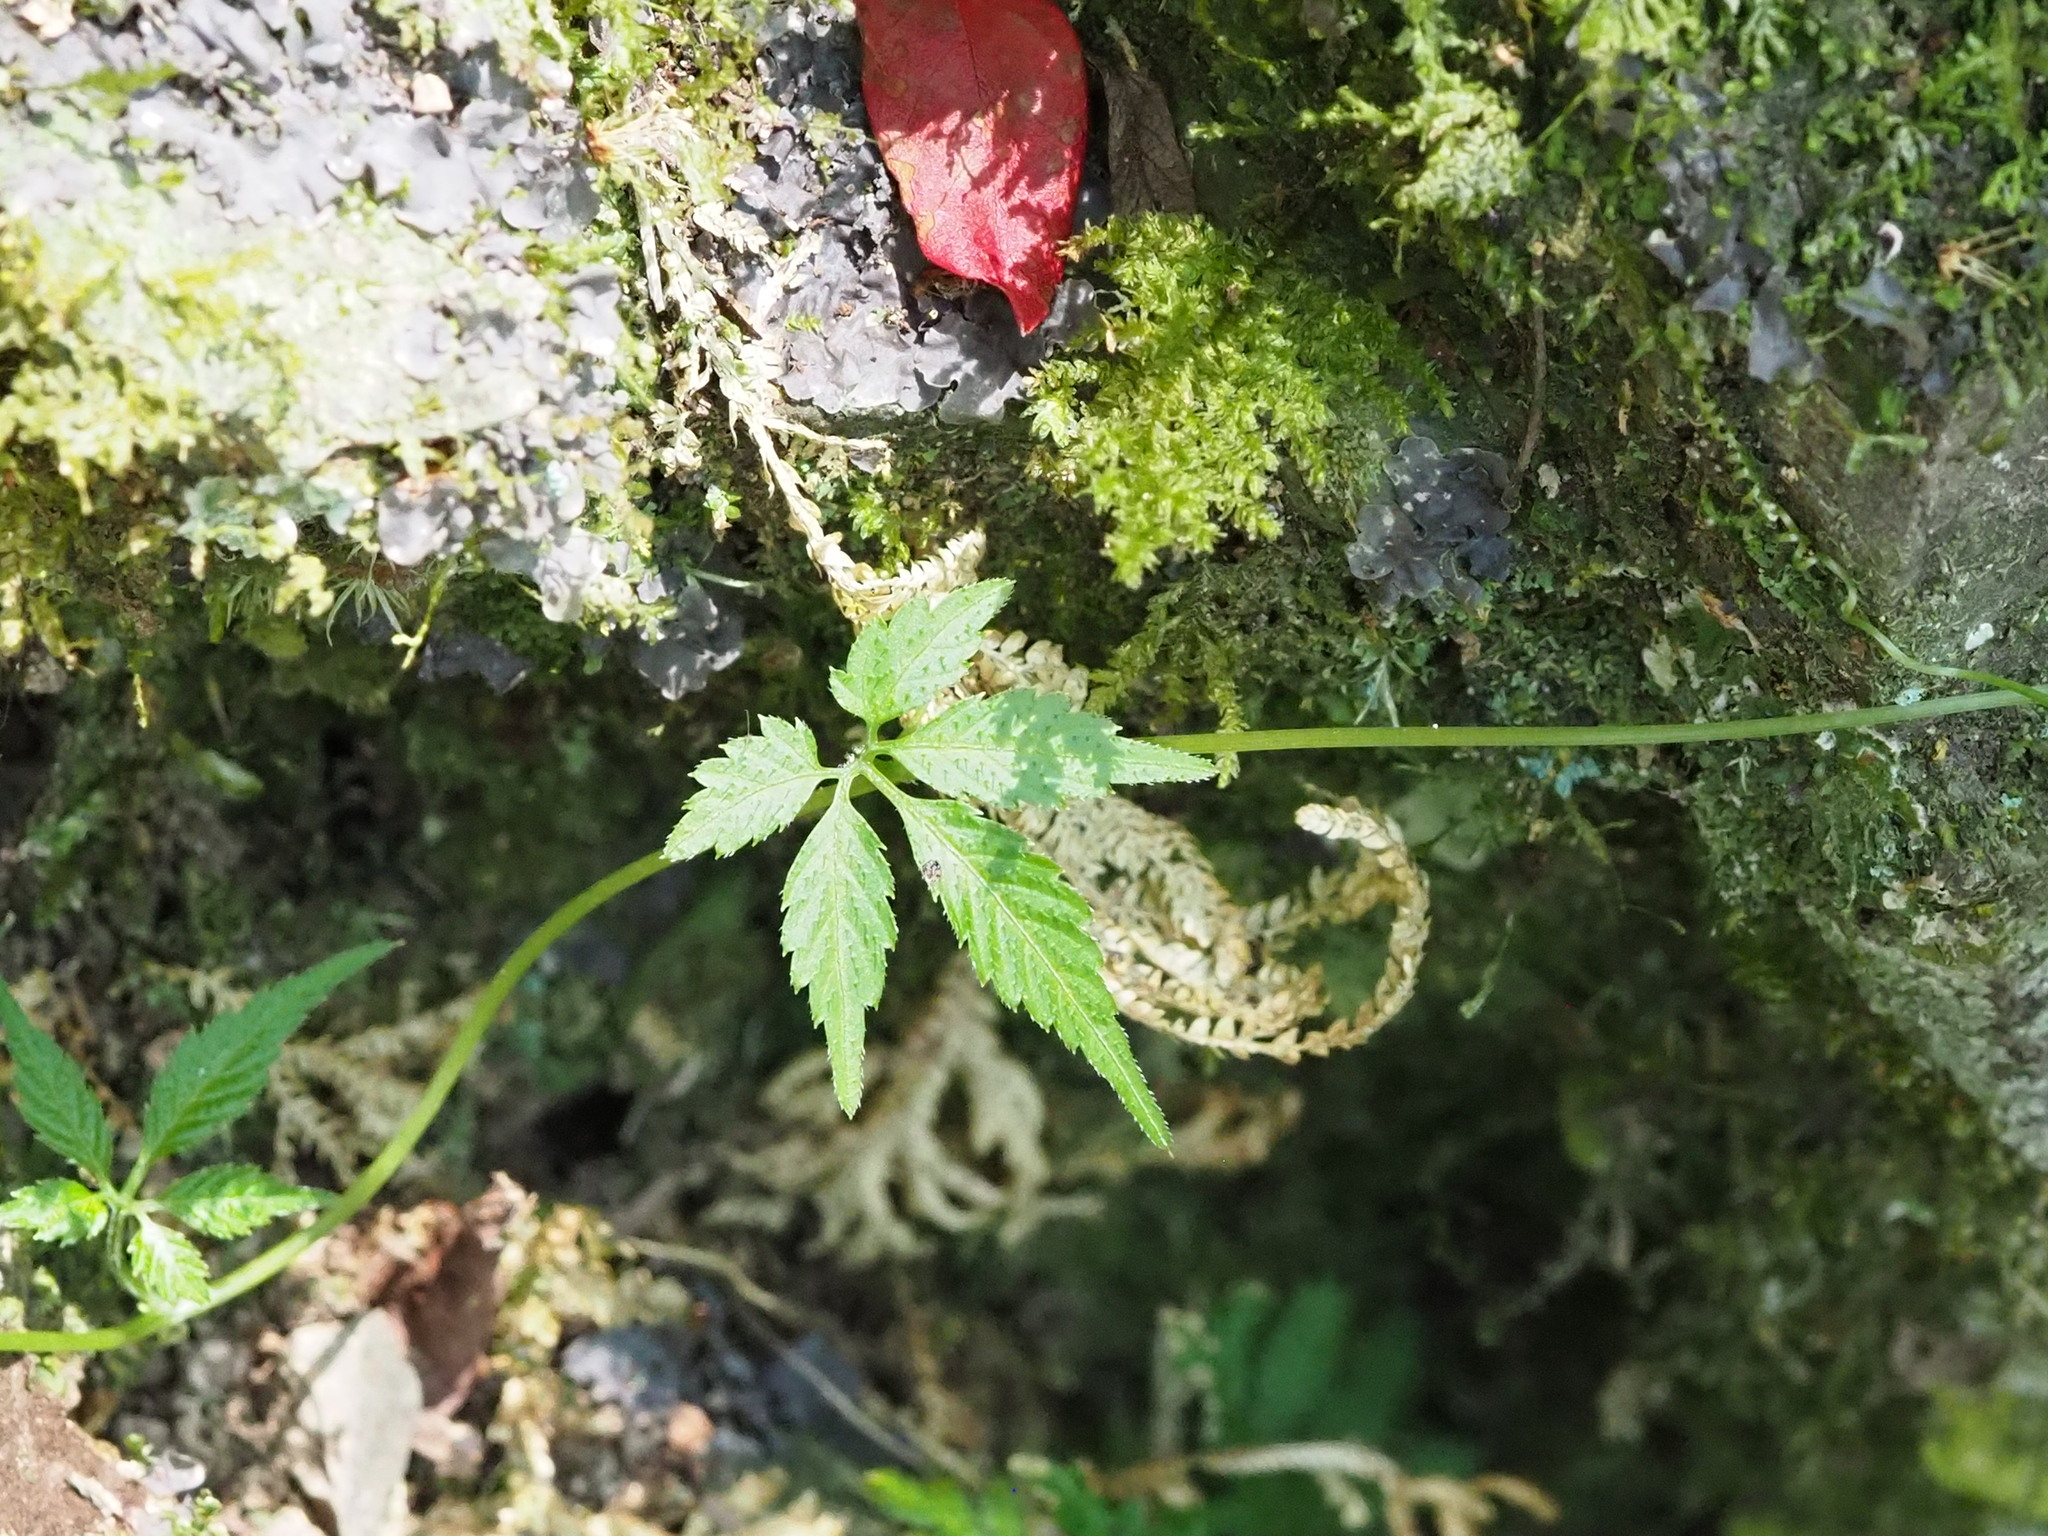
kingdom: Plantae
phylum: Tracheophyta
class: Magnoliopsida
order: Cucurbitales
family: Cucurbitaceae
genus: Gynostemma
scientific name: Gynostemma pentaphyllum
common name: Gynostemma
